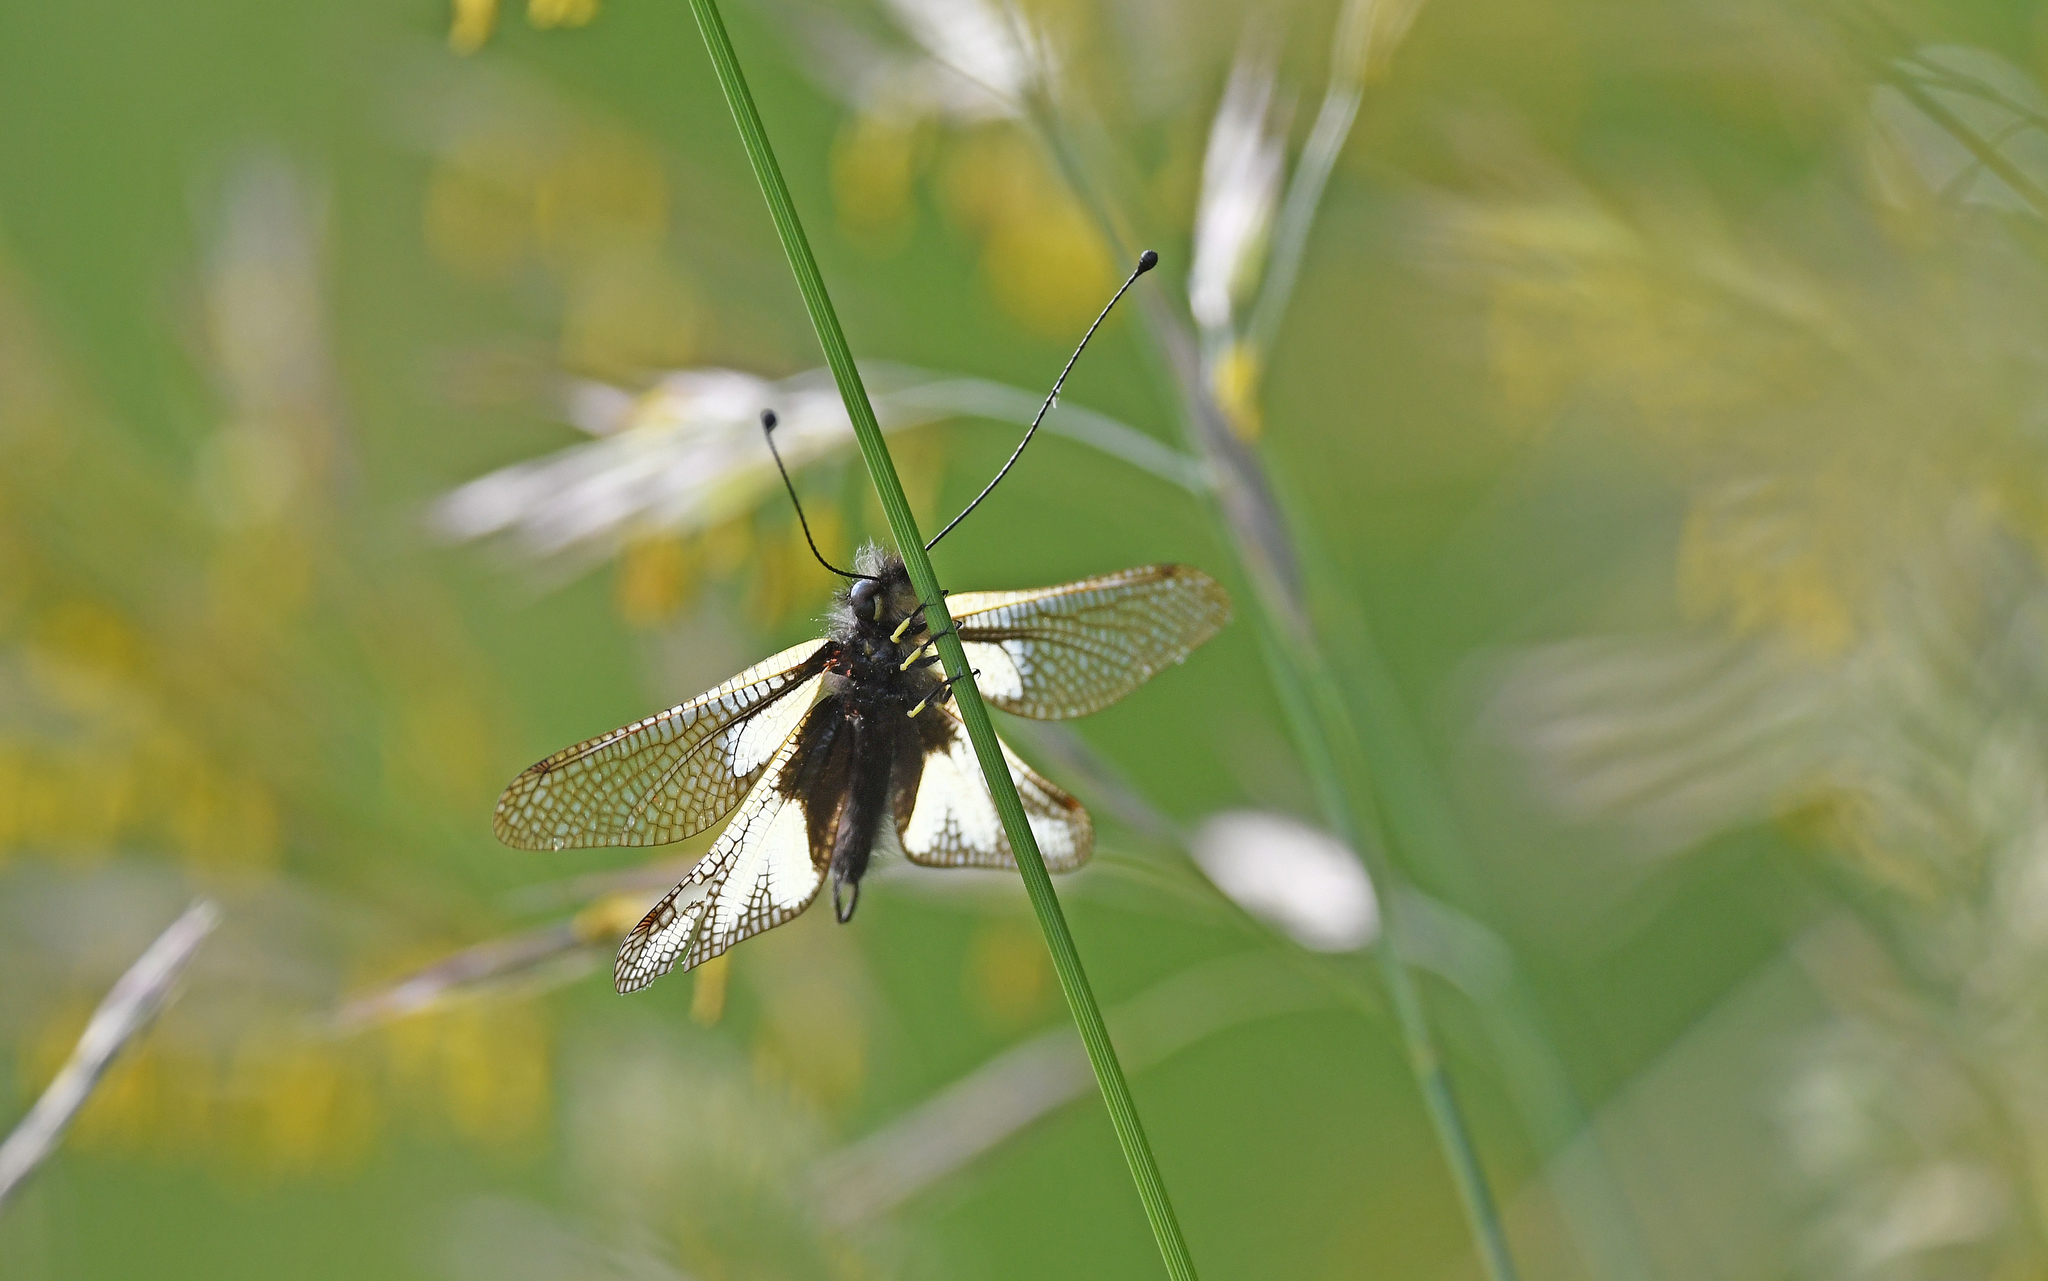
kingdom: Animalia
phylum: Arthropoda
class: Insecta
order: Neuroptera
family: Ascalaphidae
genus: Libelloides
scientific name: Libelloides coccajus
